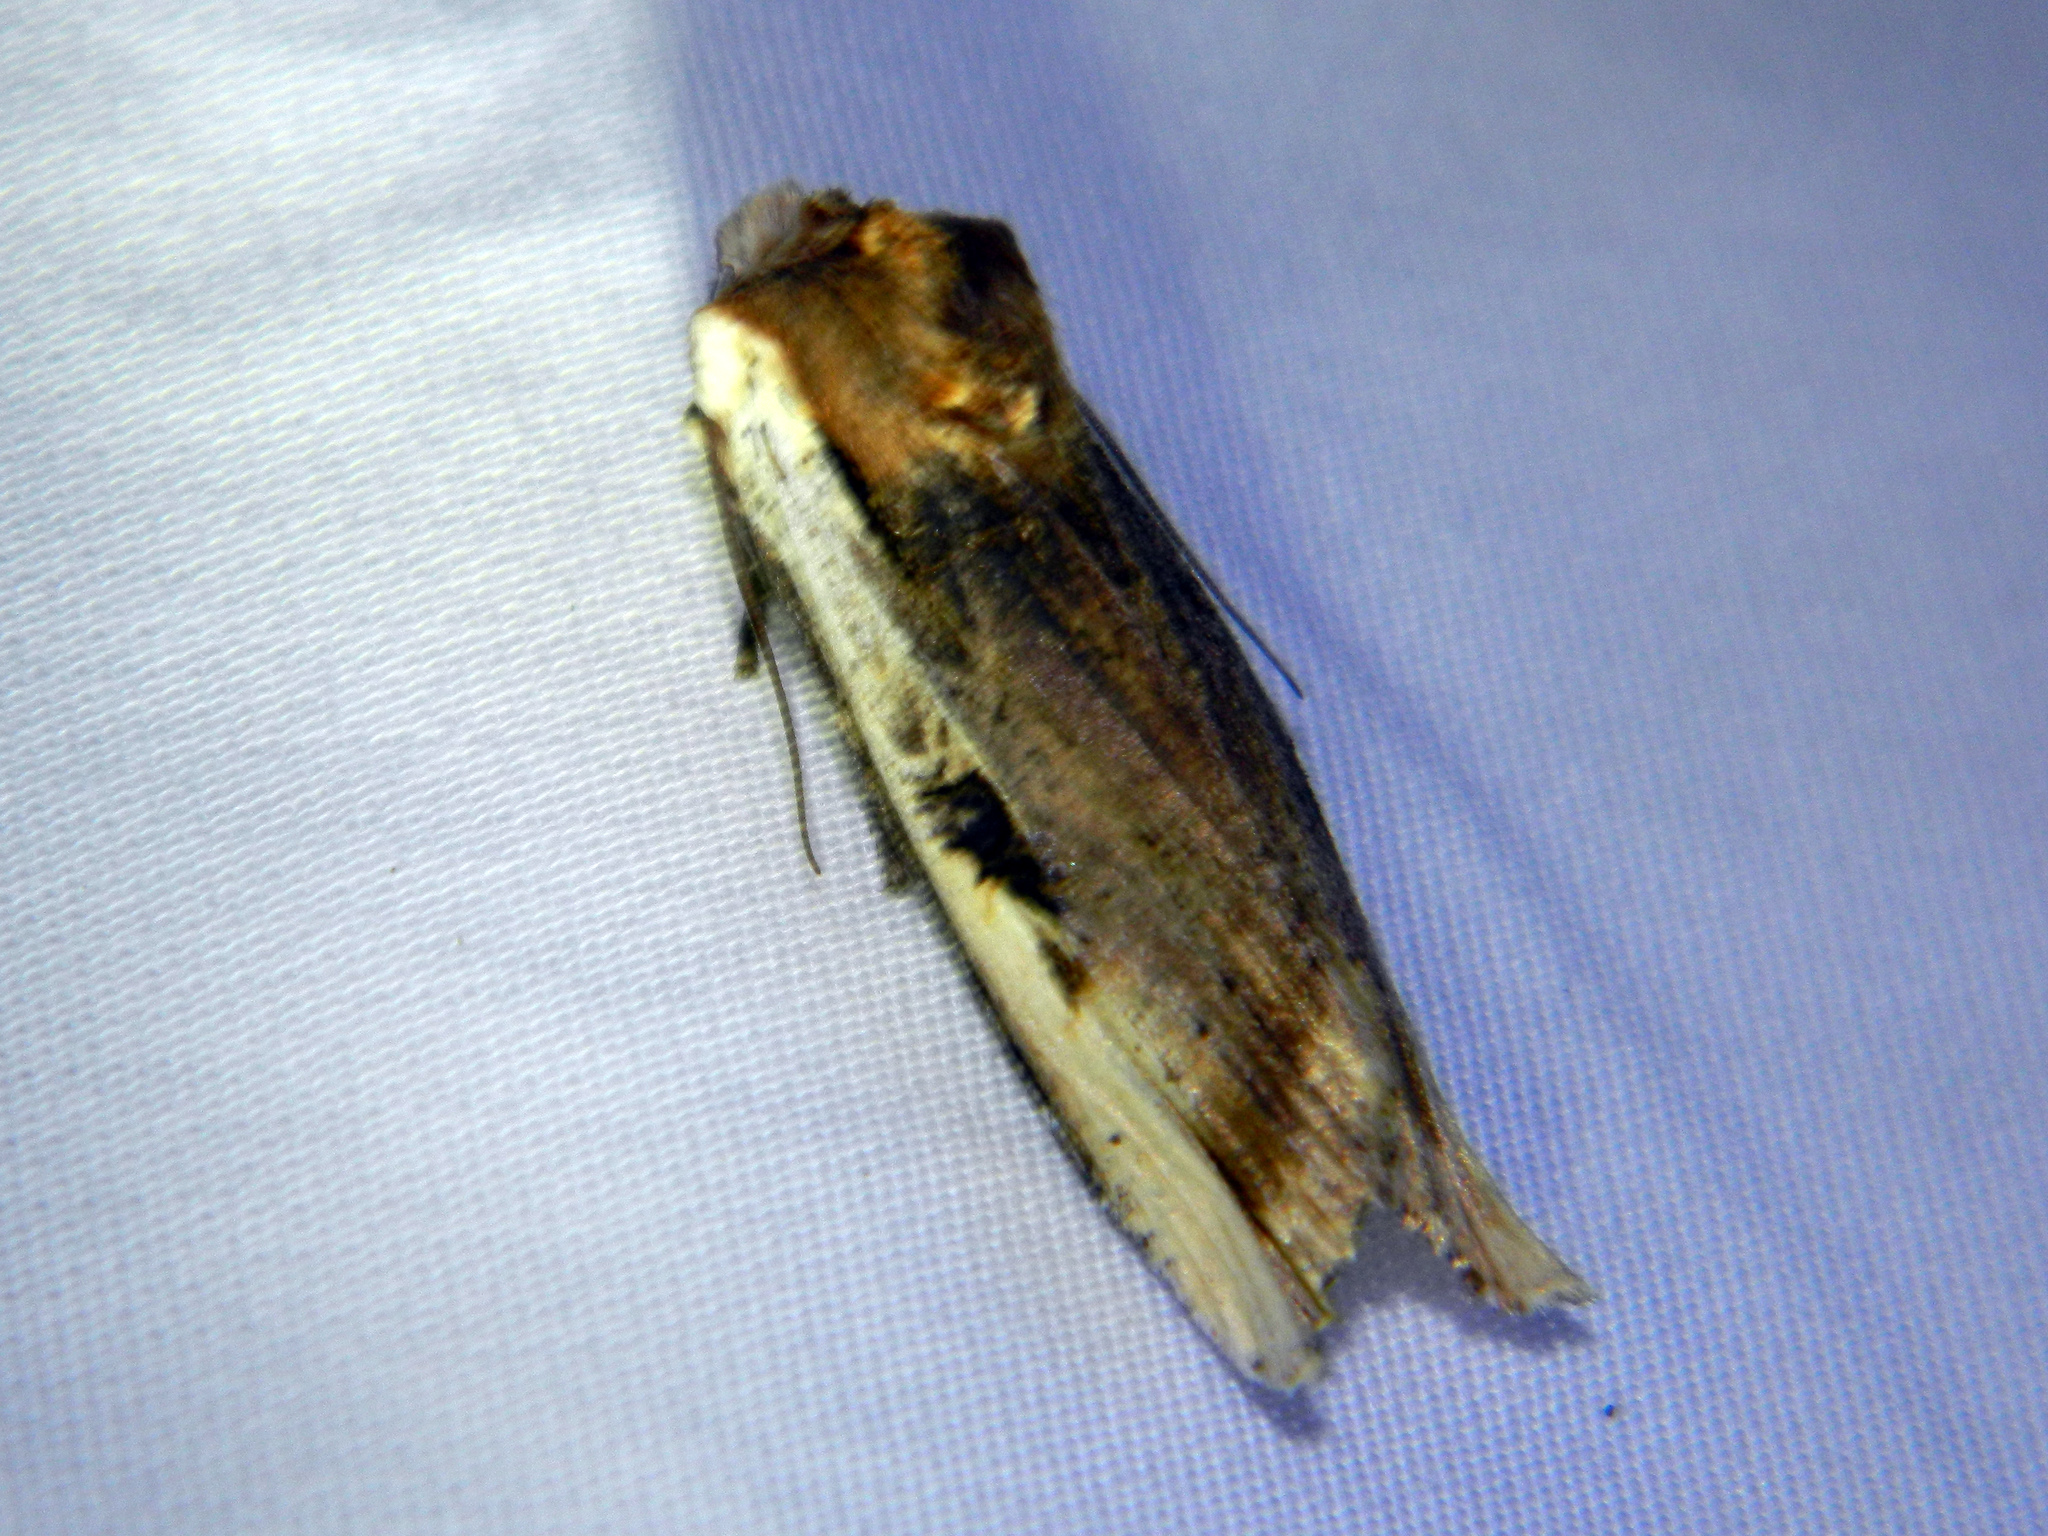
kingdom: Animalia
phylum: Arthropoda
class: Insecta
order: Lepidoptera
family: Noctuidae
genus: Xylena
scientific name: Xylena curvimacula
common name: Dot-and-dash swordgrass moth
